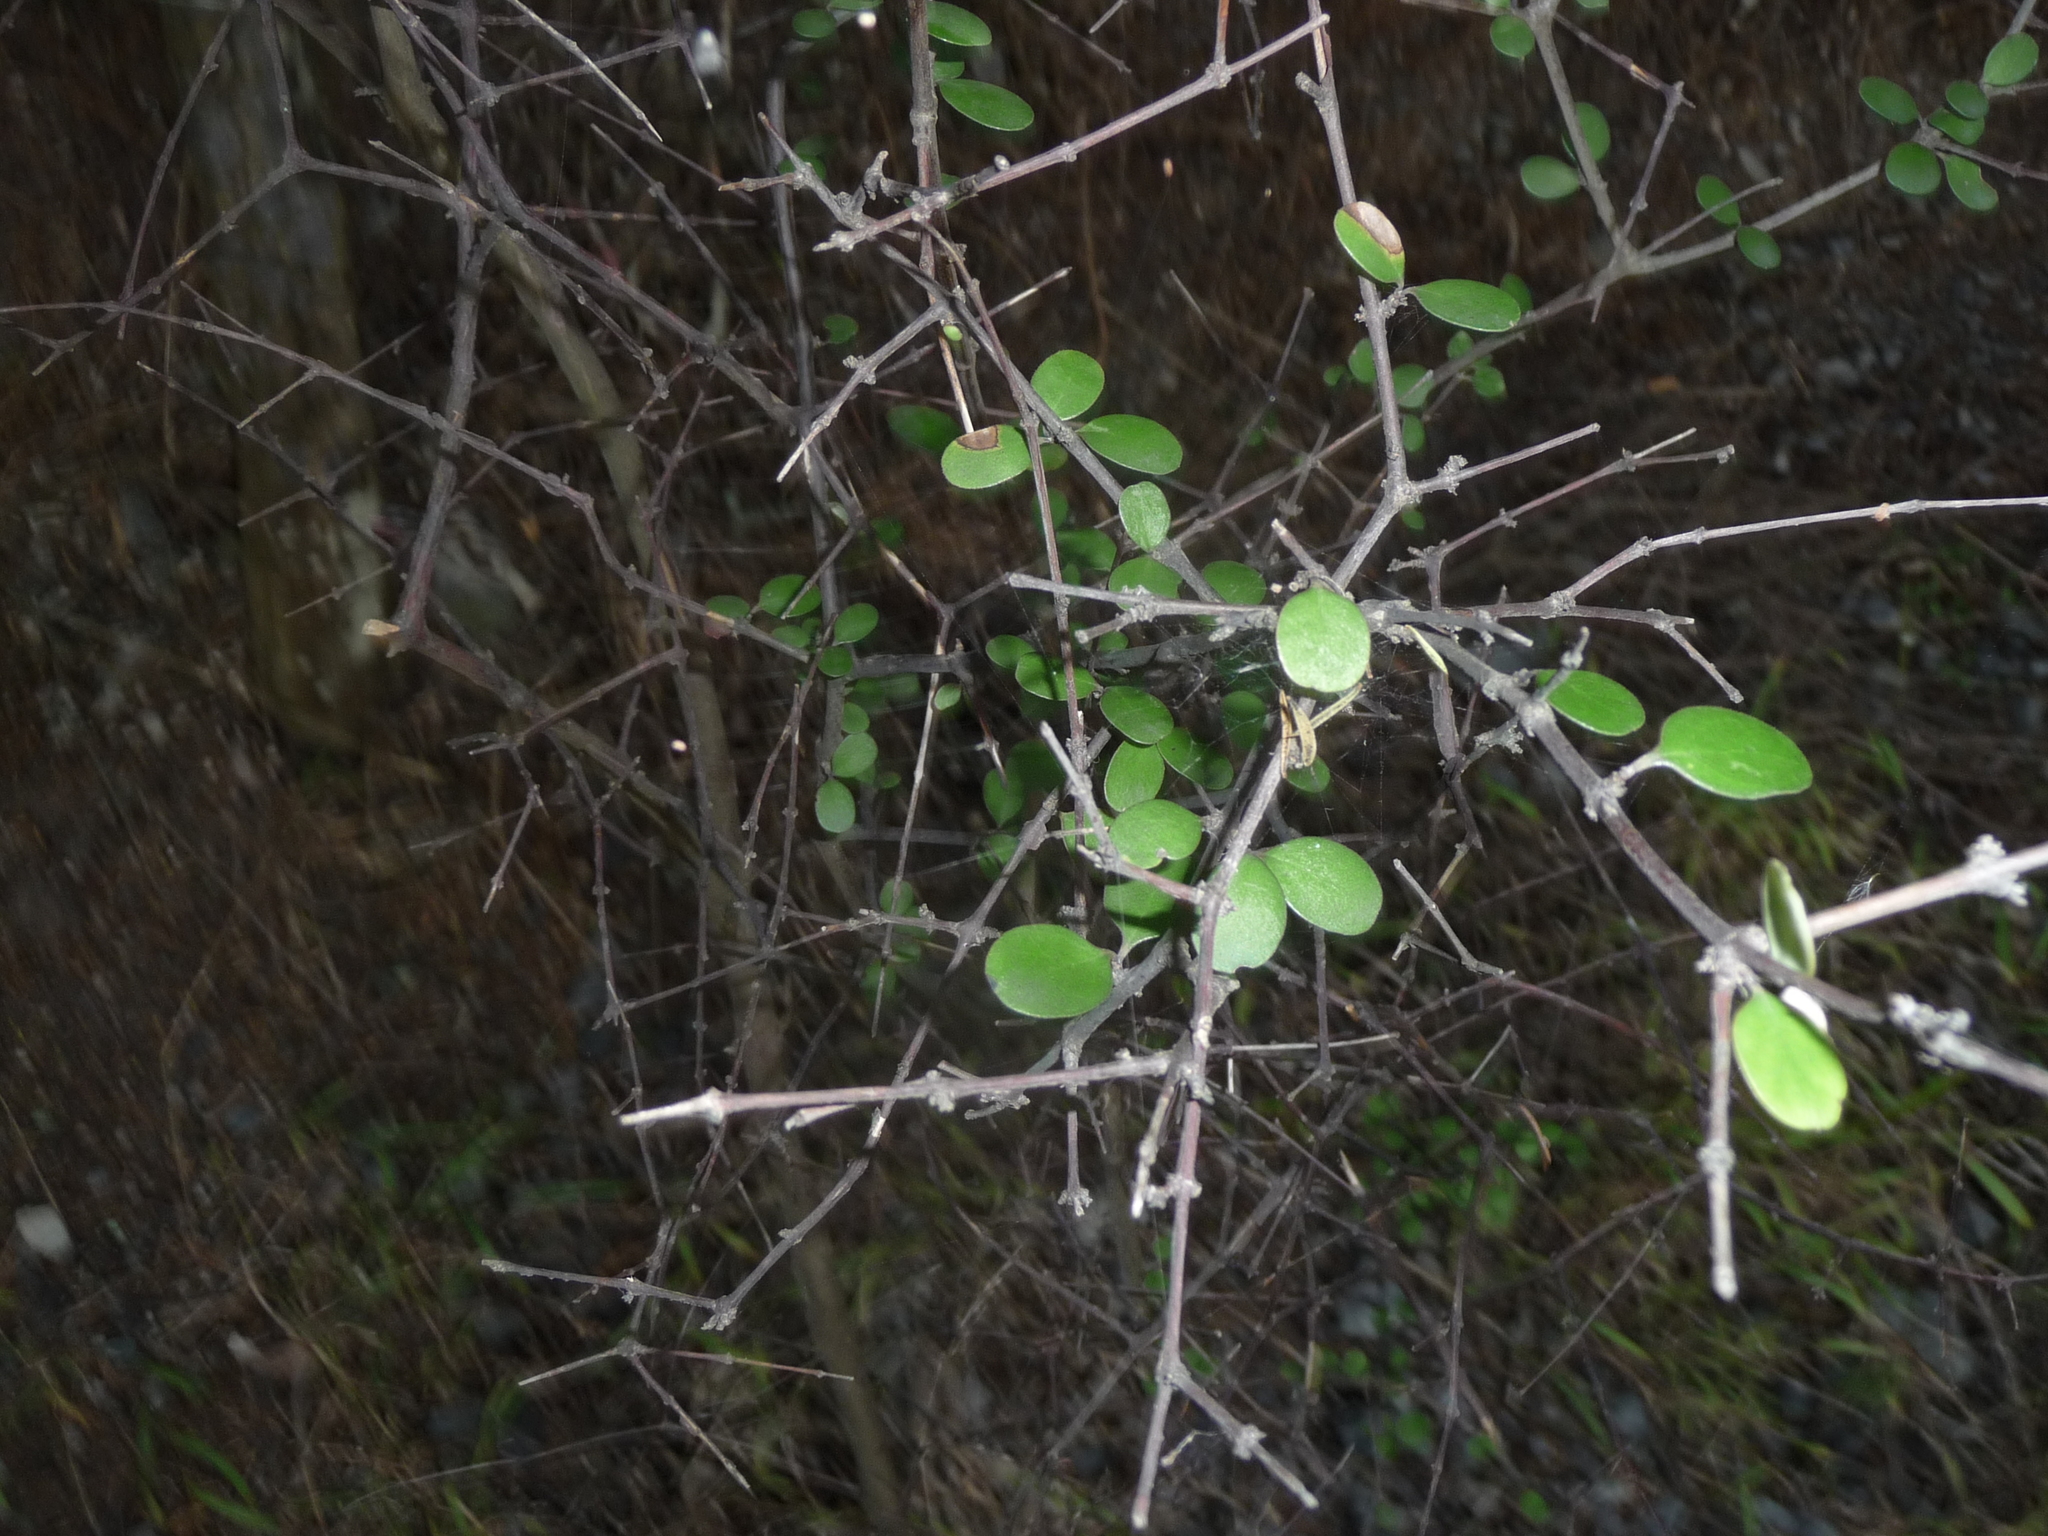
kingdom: Plantae
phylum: Tracheophyta
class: Magnoliopsida
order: Gentianales
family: Rubiaceae
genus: Coprosma
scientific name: Coprosma crassifolia
